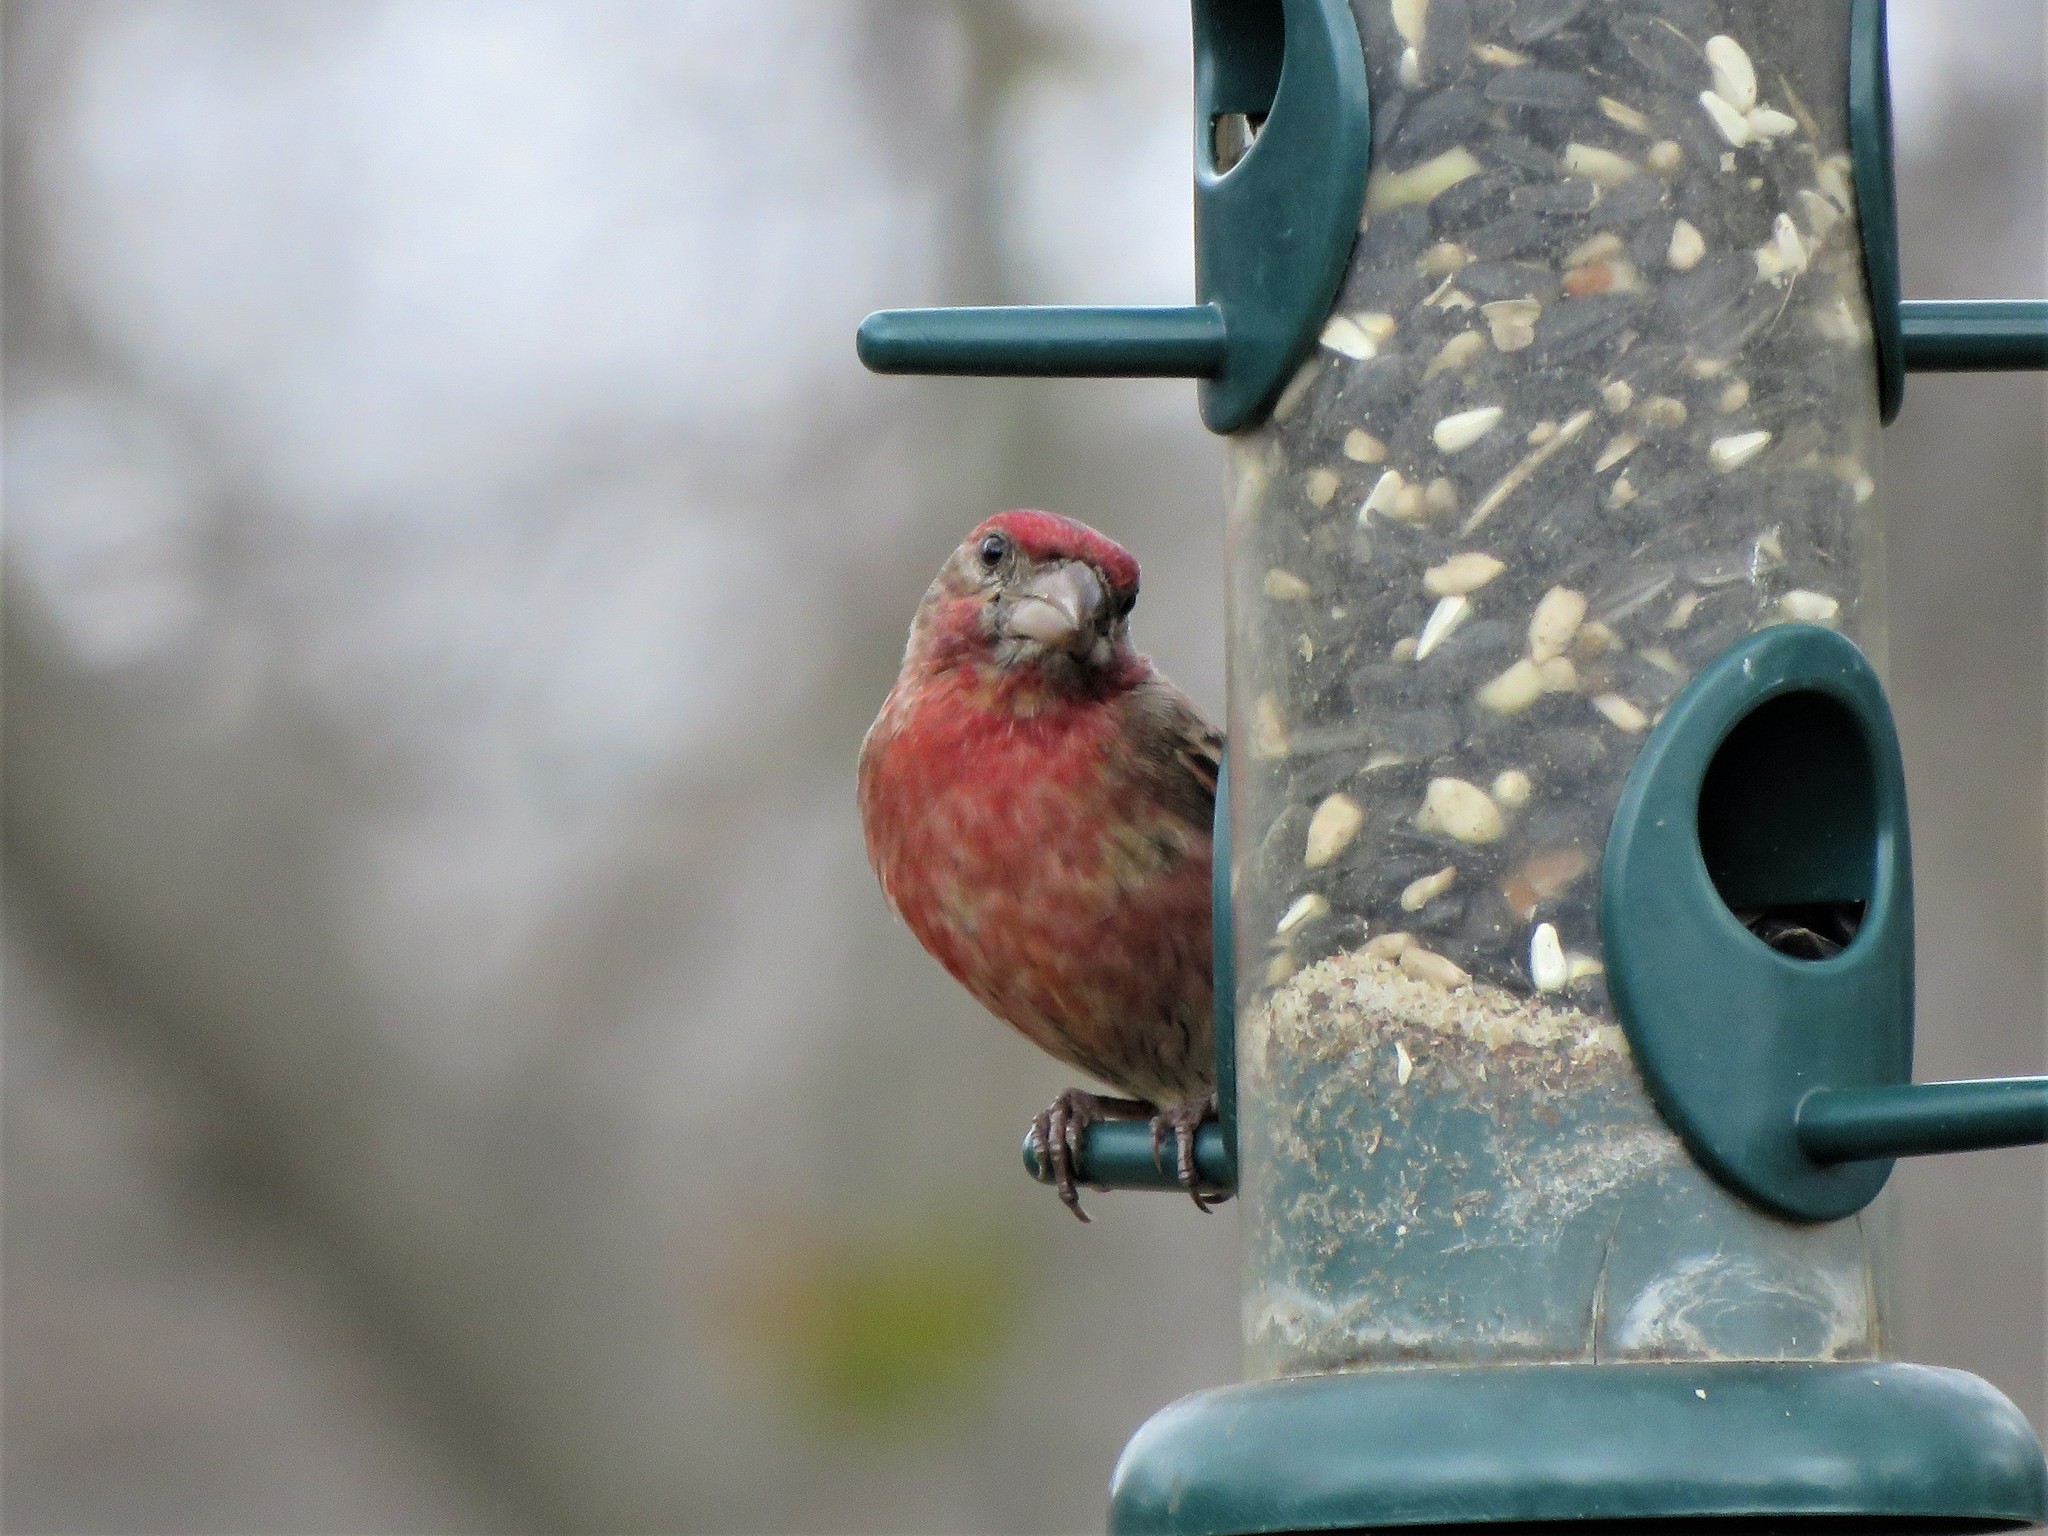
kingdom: Animalia
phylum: Chordata
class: Aves
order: Passeriformes
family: Fringillidae
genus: Haemorhous
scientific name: Haemorhous mexicanus
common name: House finch
